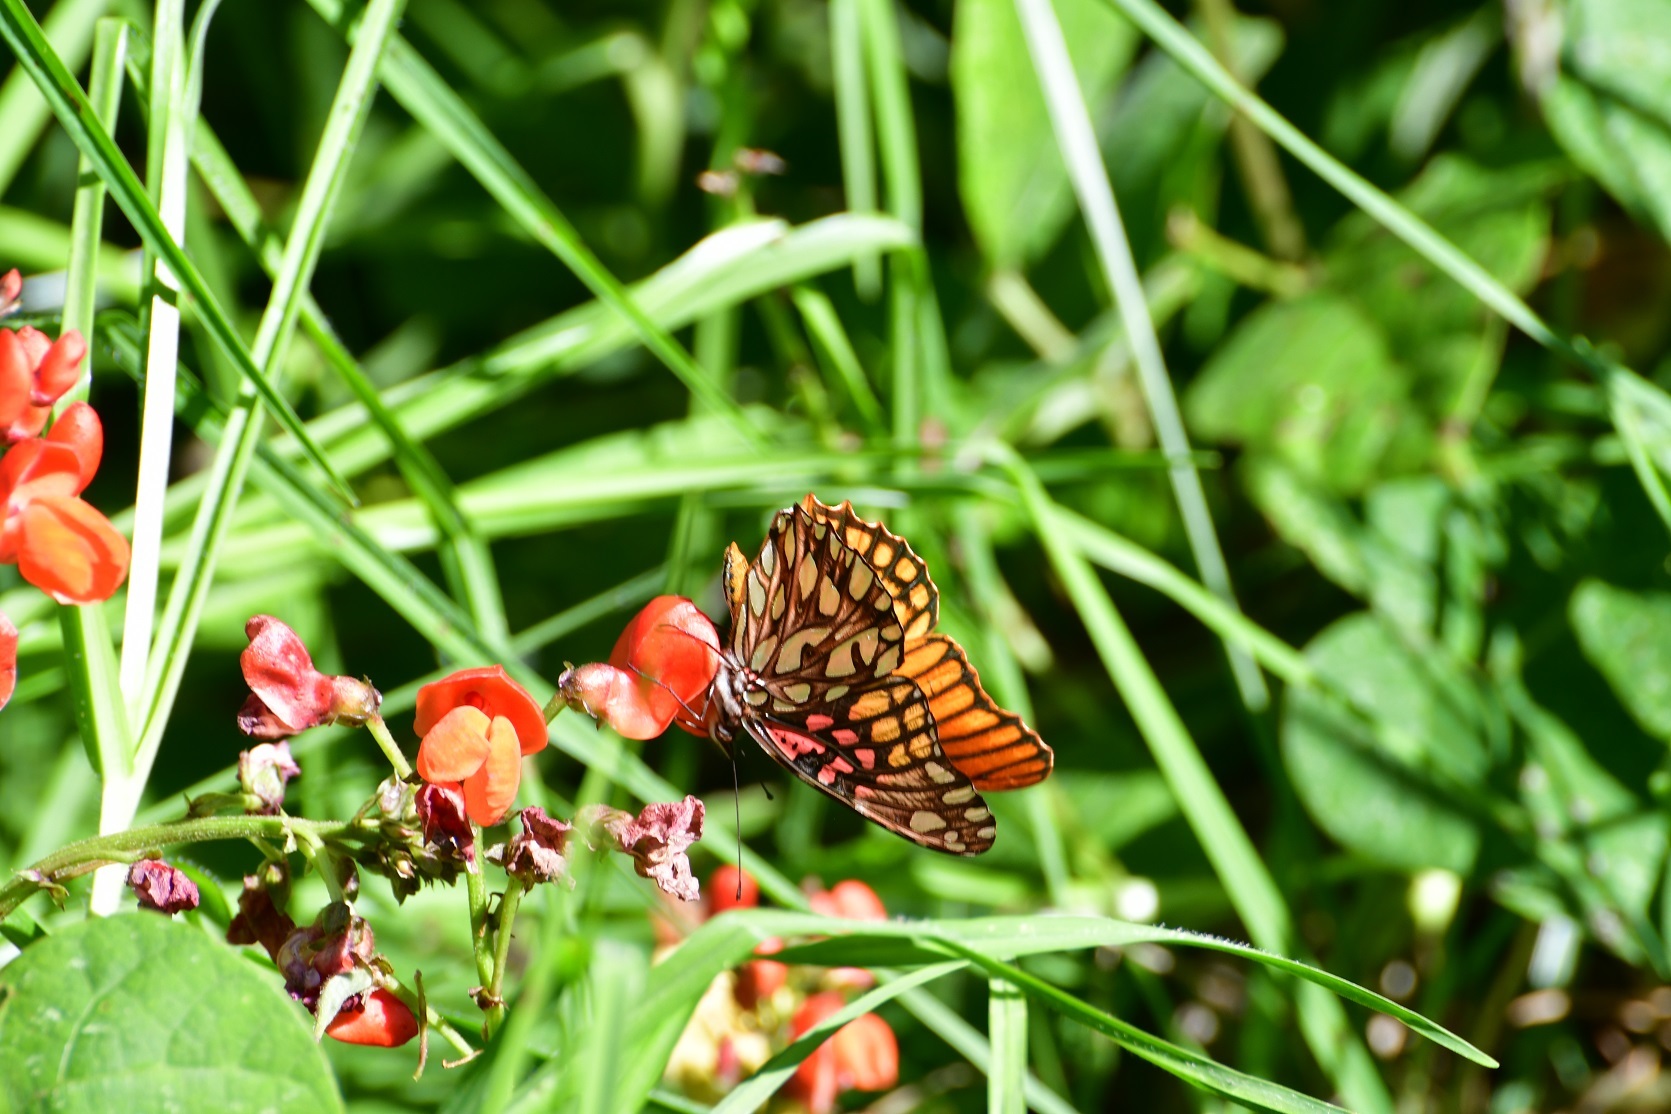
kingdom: Animalia
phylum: Arthropoda
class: Insecta
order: Lepidoptera
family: Nymphalidae
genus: Dione
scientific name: Dione moneta
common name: Mexican silverspot
